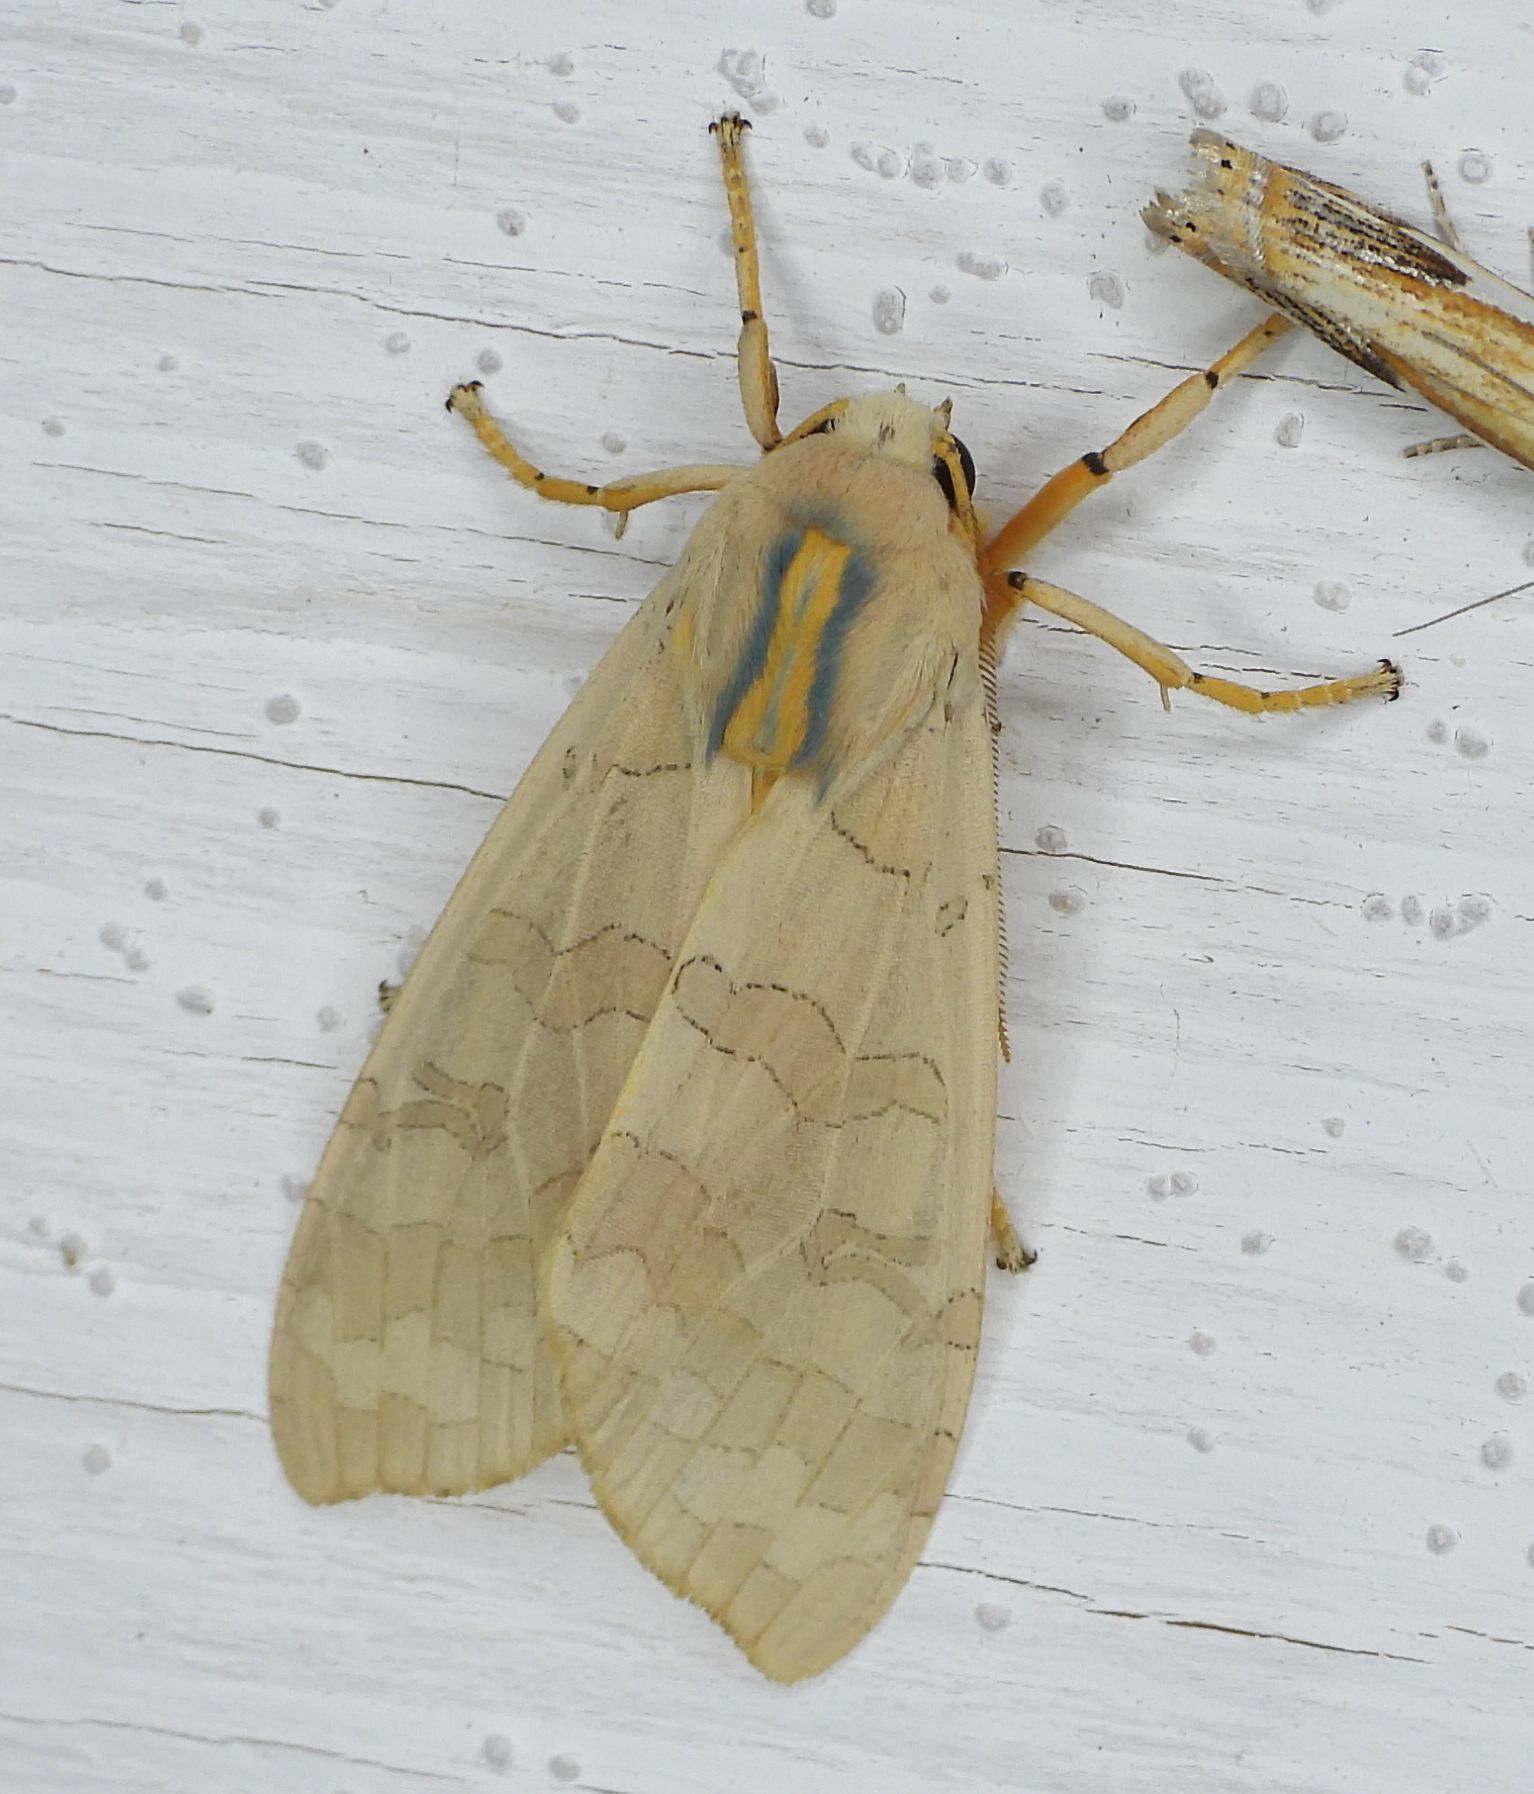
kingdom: Animalia
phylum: Arthropoda
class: Insecta
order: Lepidoptera
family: Erebidae
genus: Halysidota
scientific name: Halysidota tessellaris
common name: Banded tussock moth
